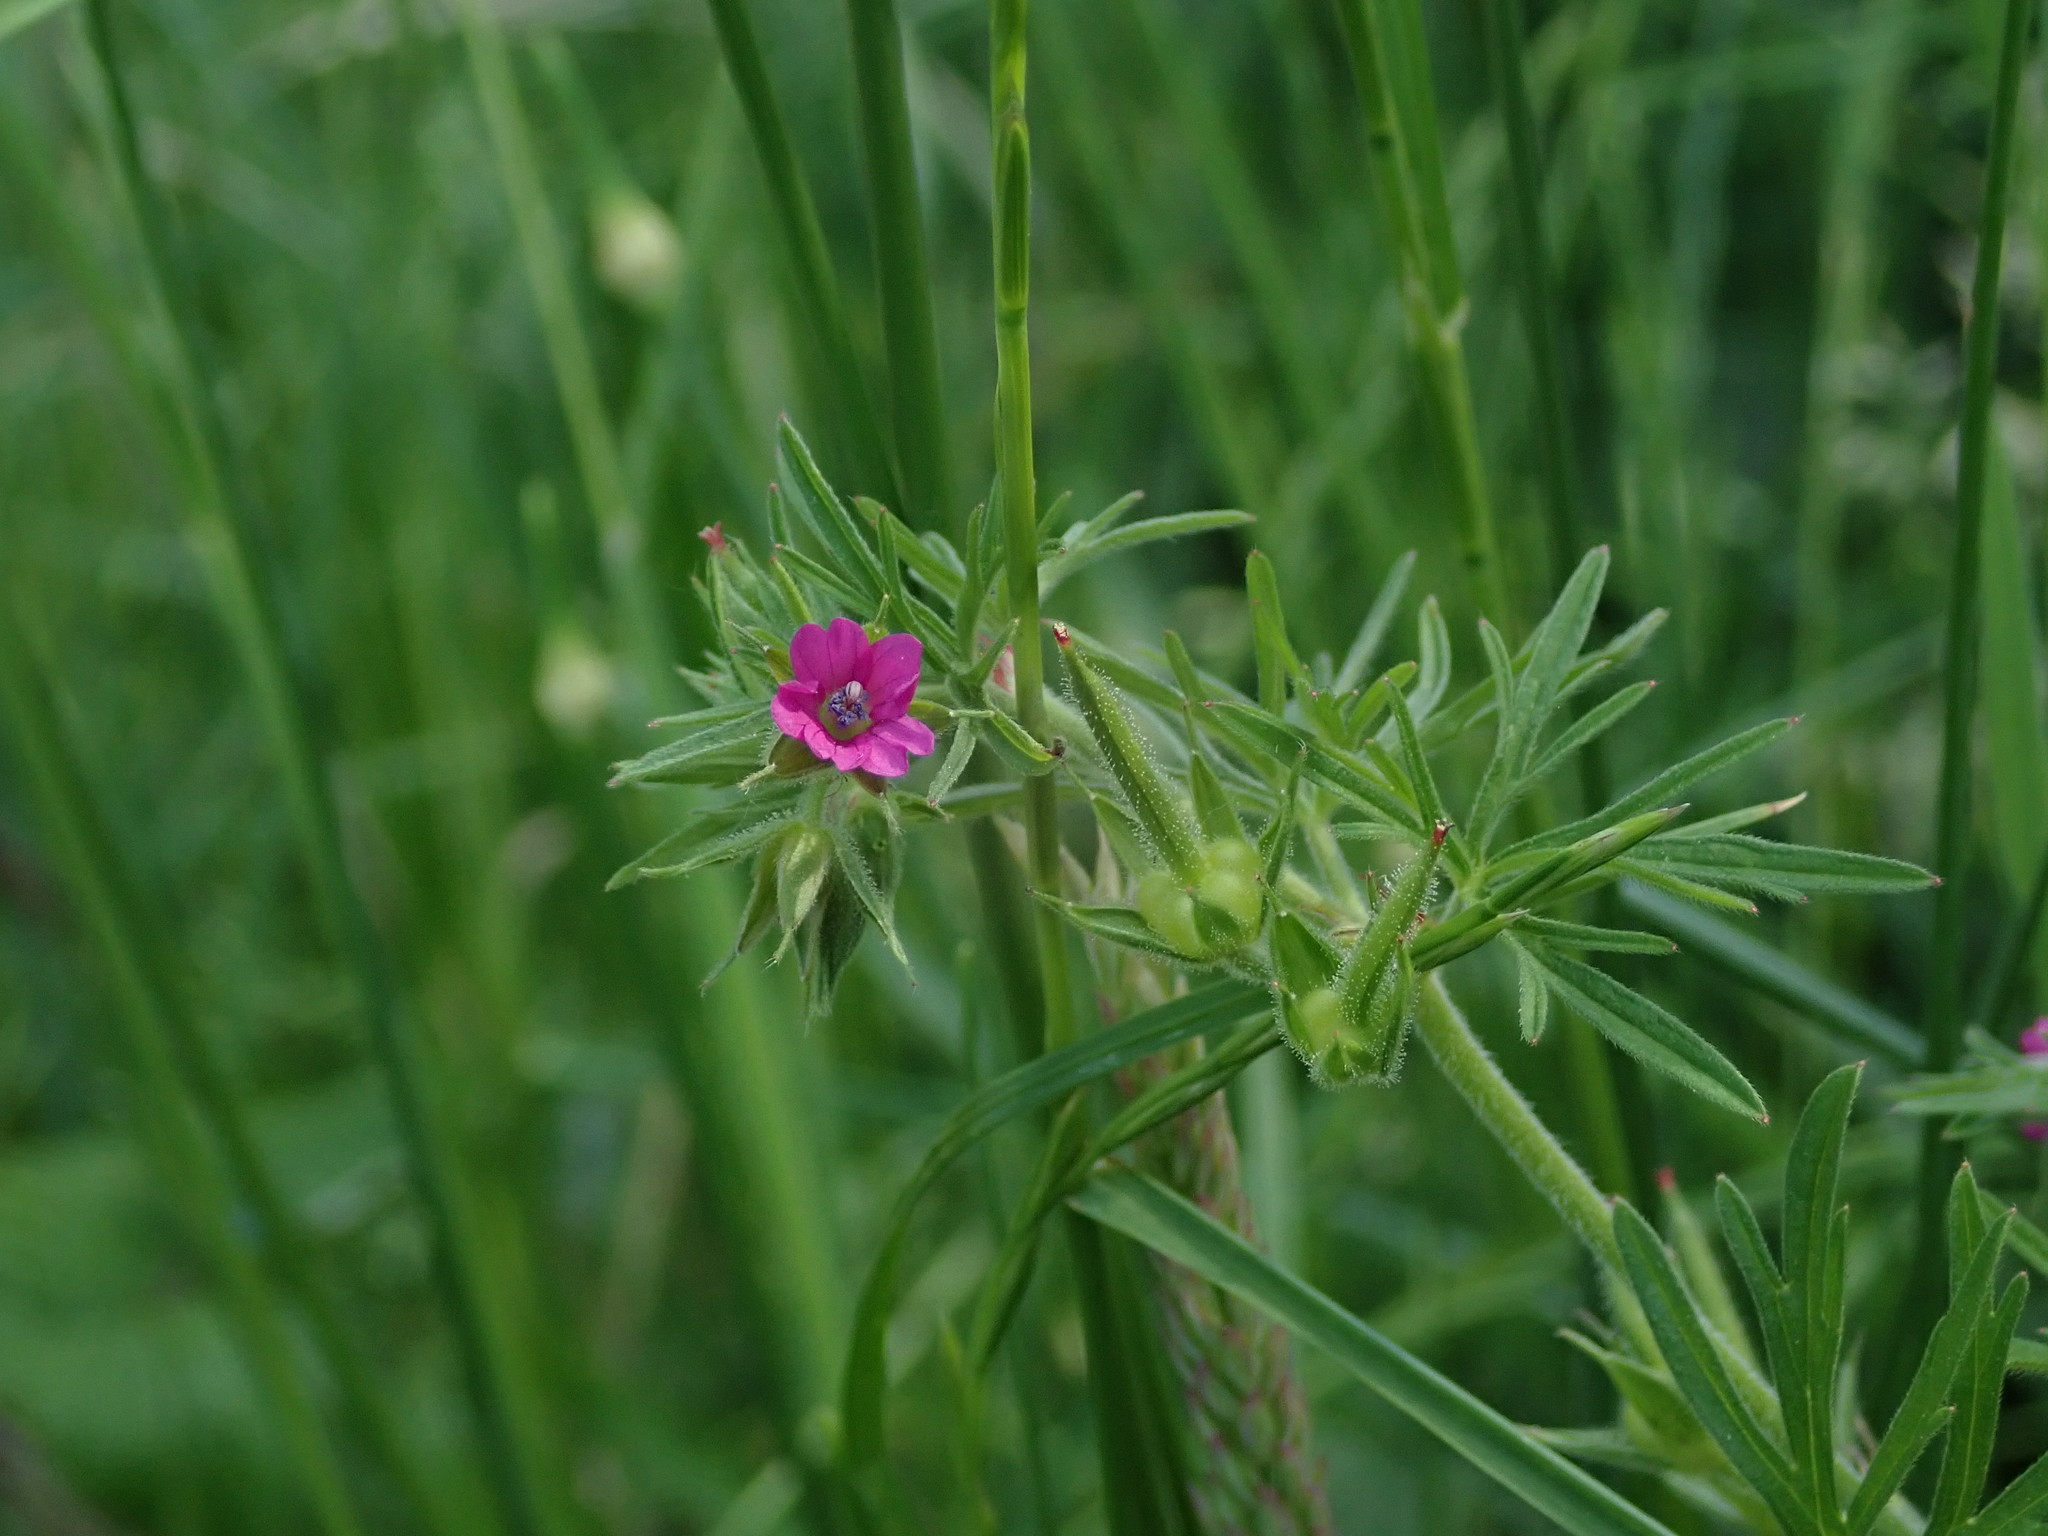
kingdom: Plantae
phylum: Tracheophyta
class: Magnoliopsida
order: Geraniales
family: Geraniaceae
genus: Geranium
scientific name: Geranium dissectum
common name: Cut-leaved crane's-bill
